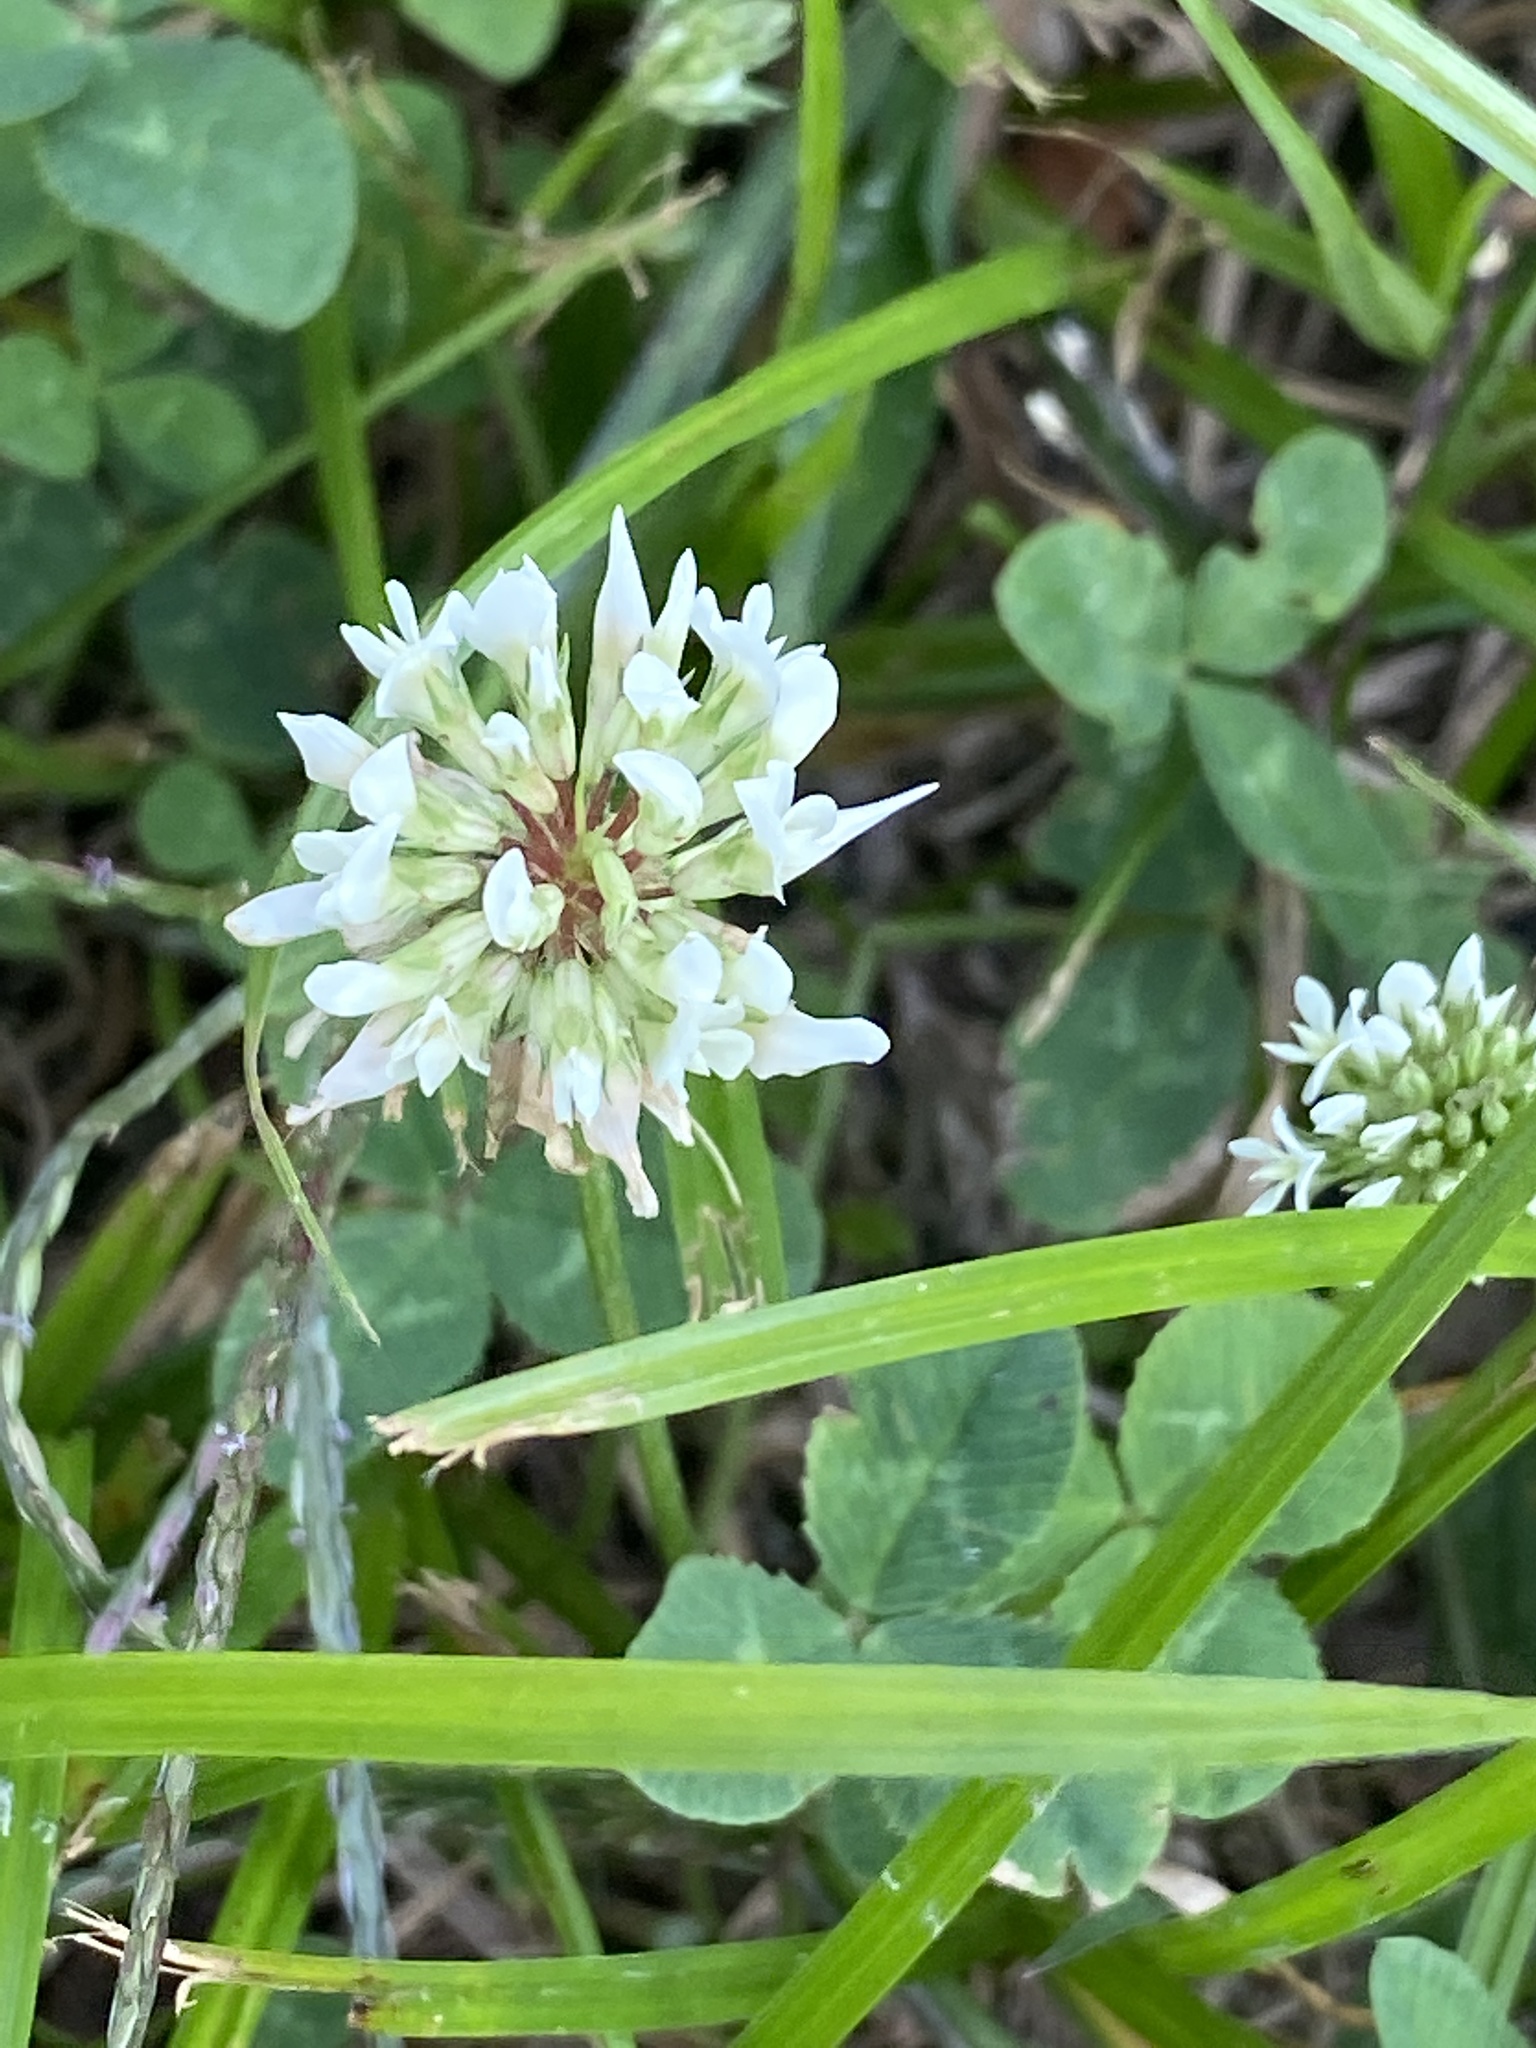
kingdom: Plantae
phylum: Tracheophyta
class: Magnoliopsida
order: Fabales
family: Fabaceae
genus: Trifolium
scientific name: Trifolium repens
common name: White clover
